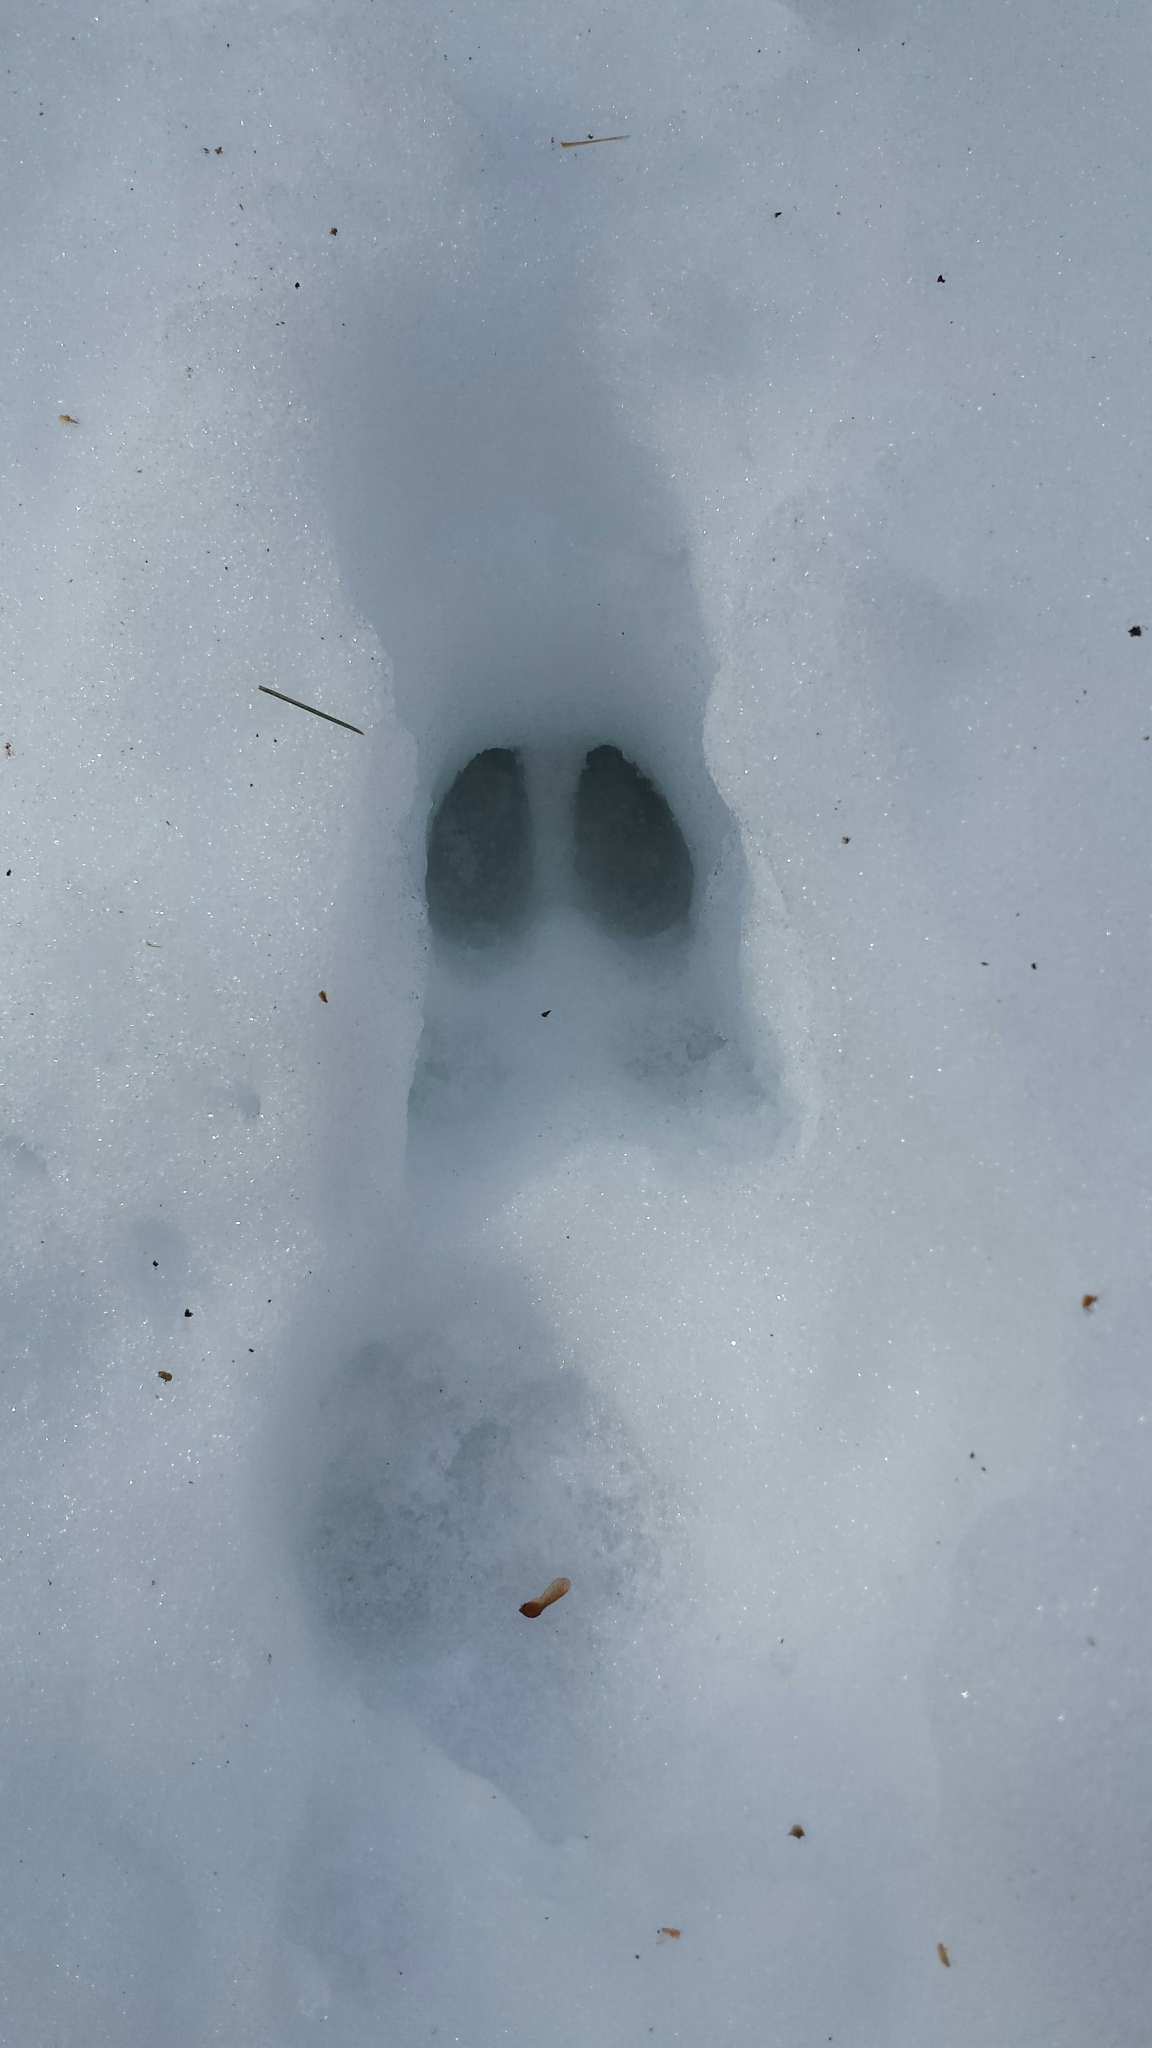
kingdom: Animalia
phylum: Chordata
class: Mammalia
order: Artiodactyla
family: Cervidae
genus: Odocoileus
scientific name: Odocoileus virginianus
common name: White-tailed deer
